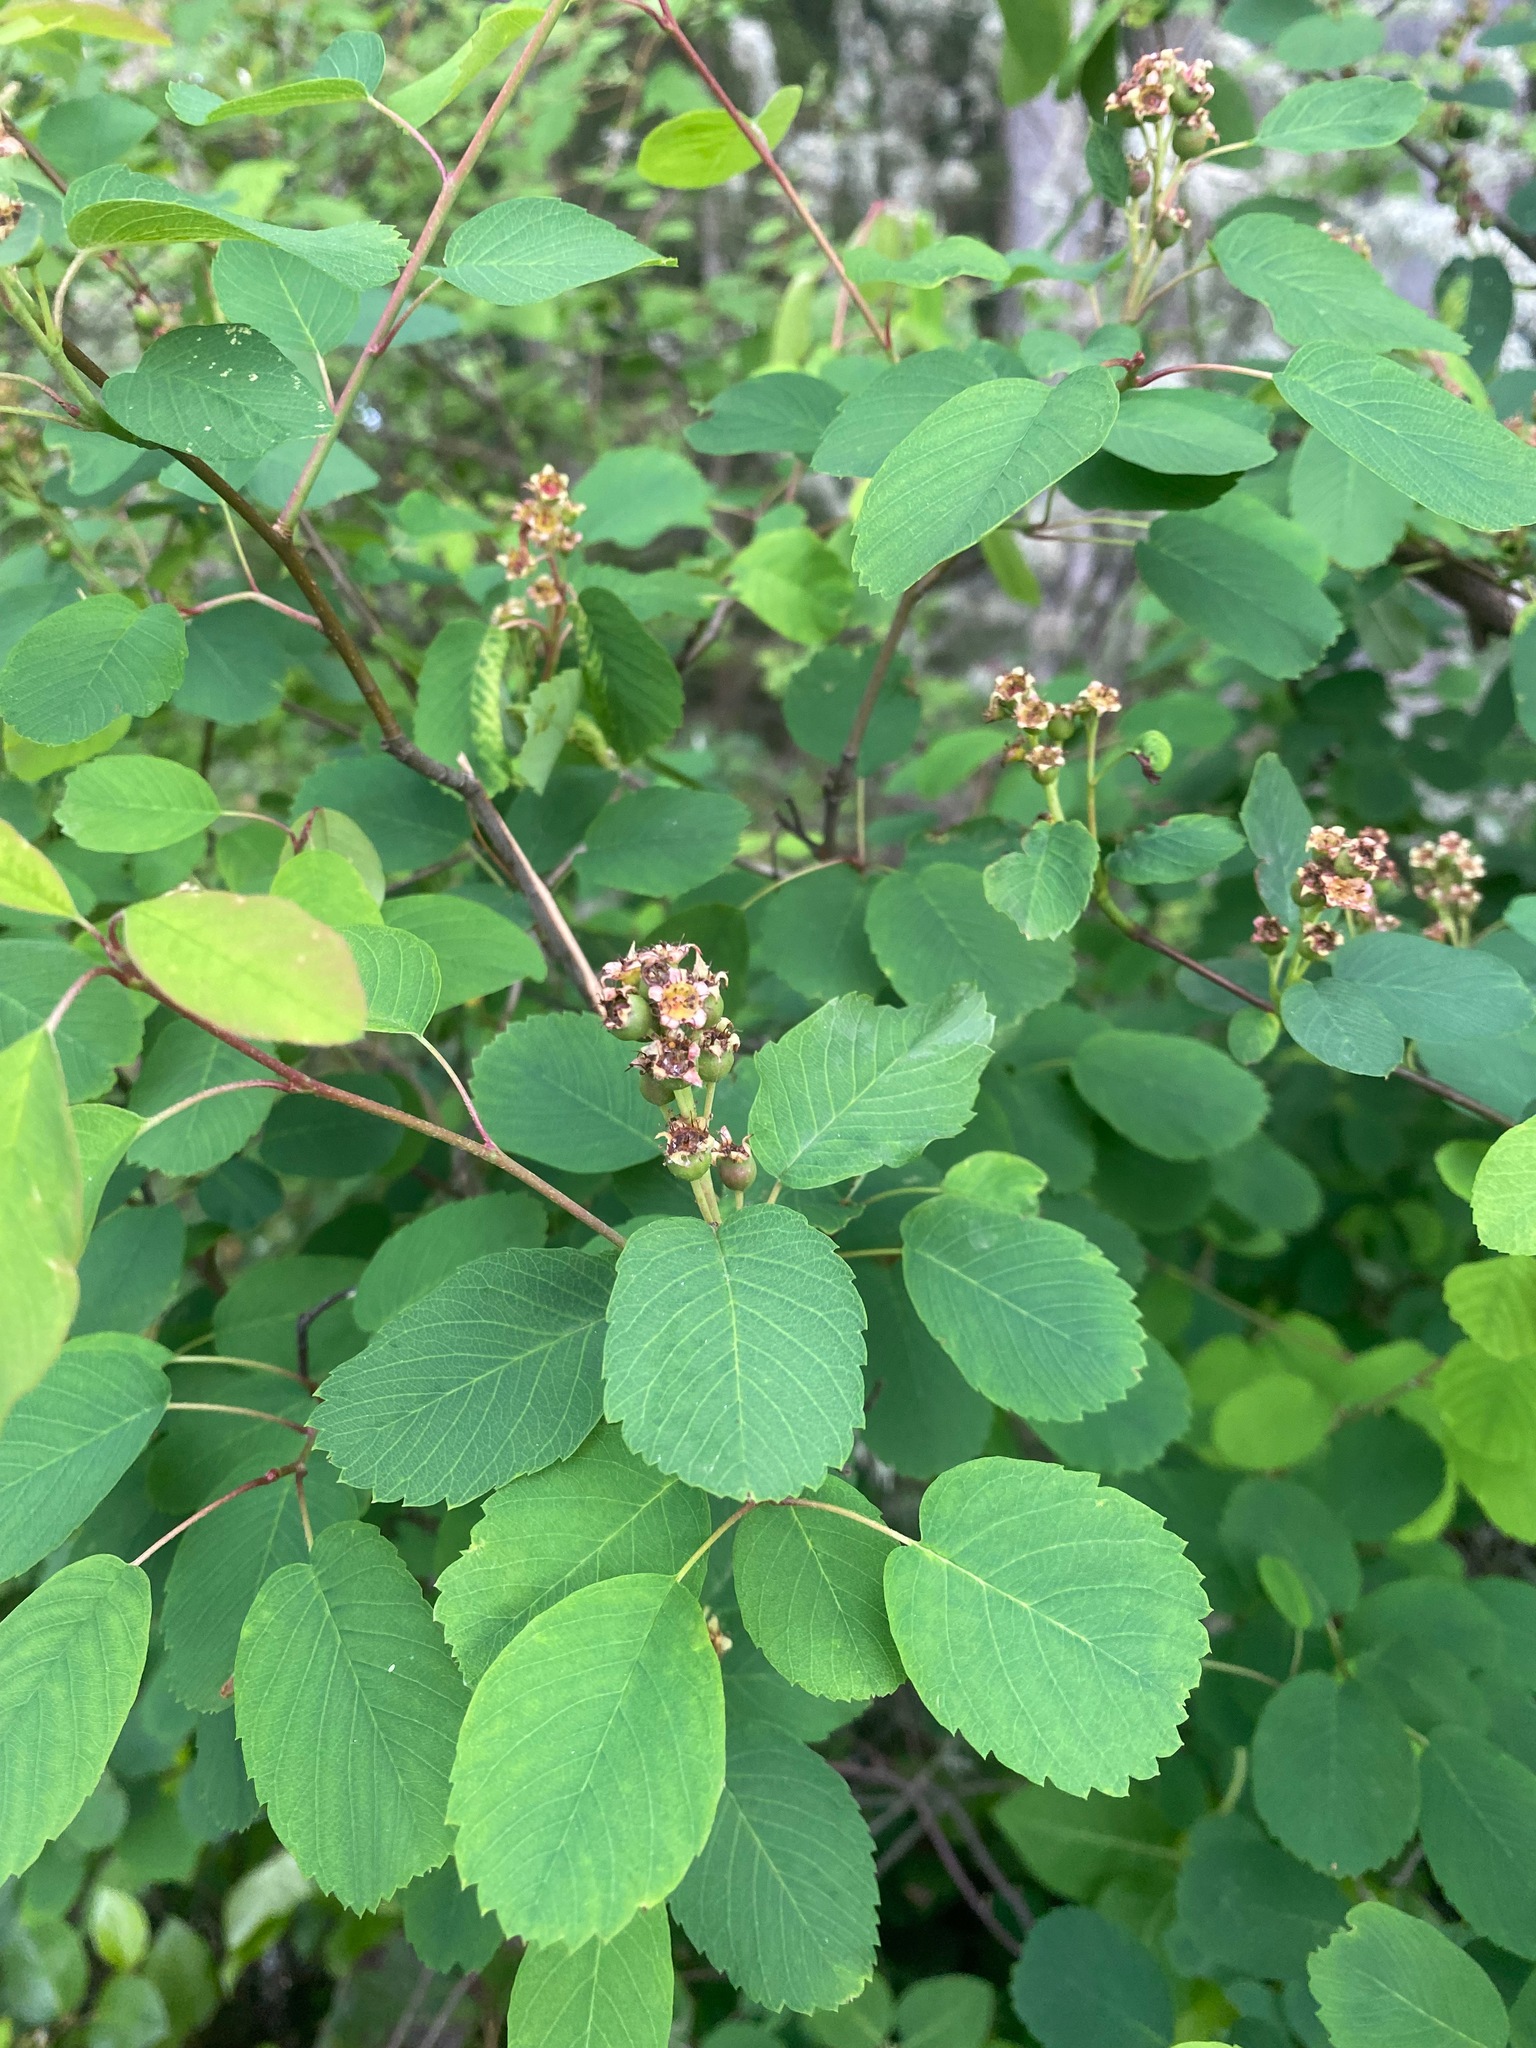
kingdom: Plantae
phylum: Tracheophyta
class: Magnoliopsida
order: Rosales
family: Rosaceae
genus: Amelanchier
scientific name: Amelanchier alnifolia
